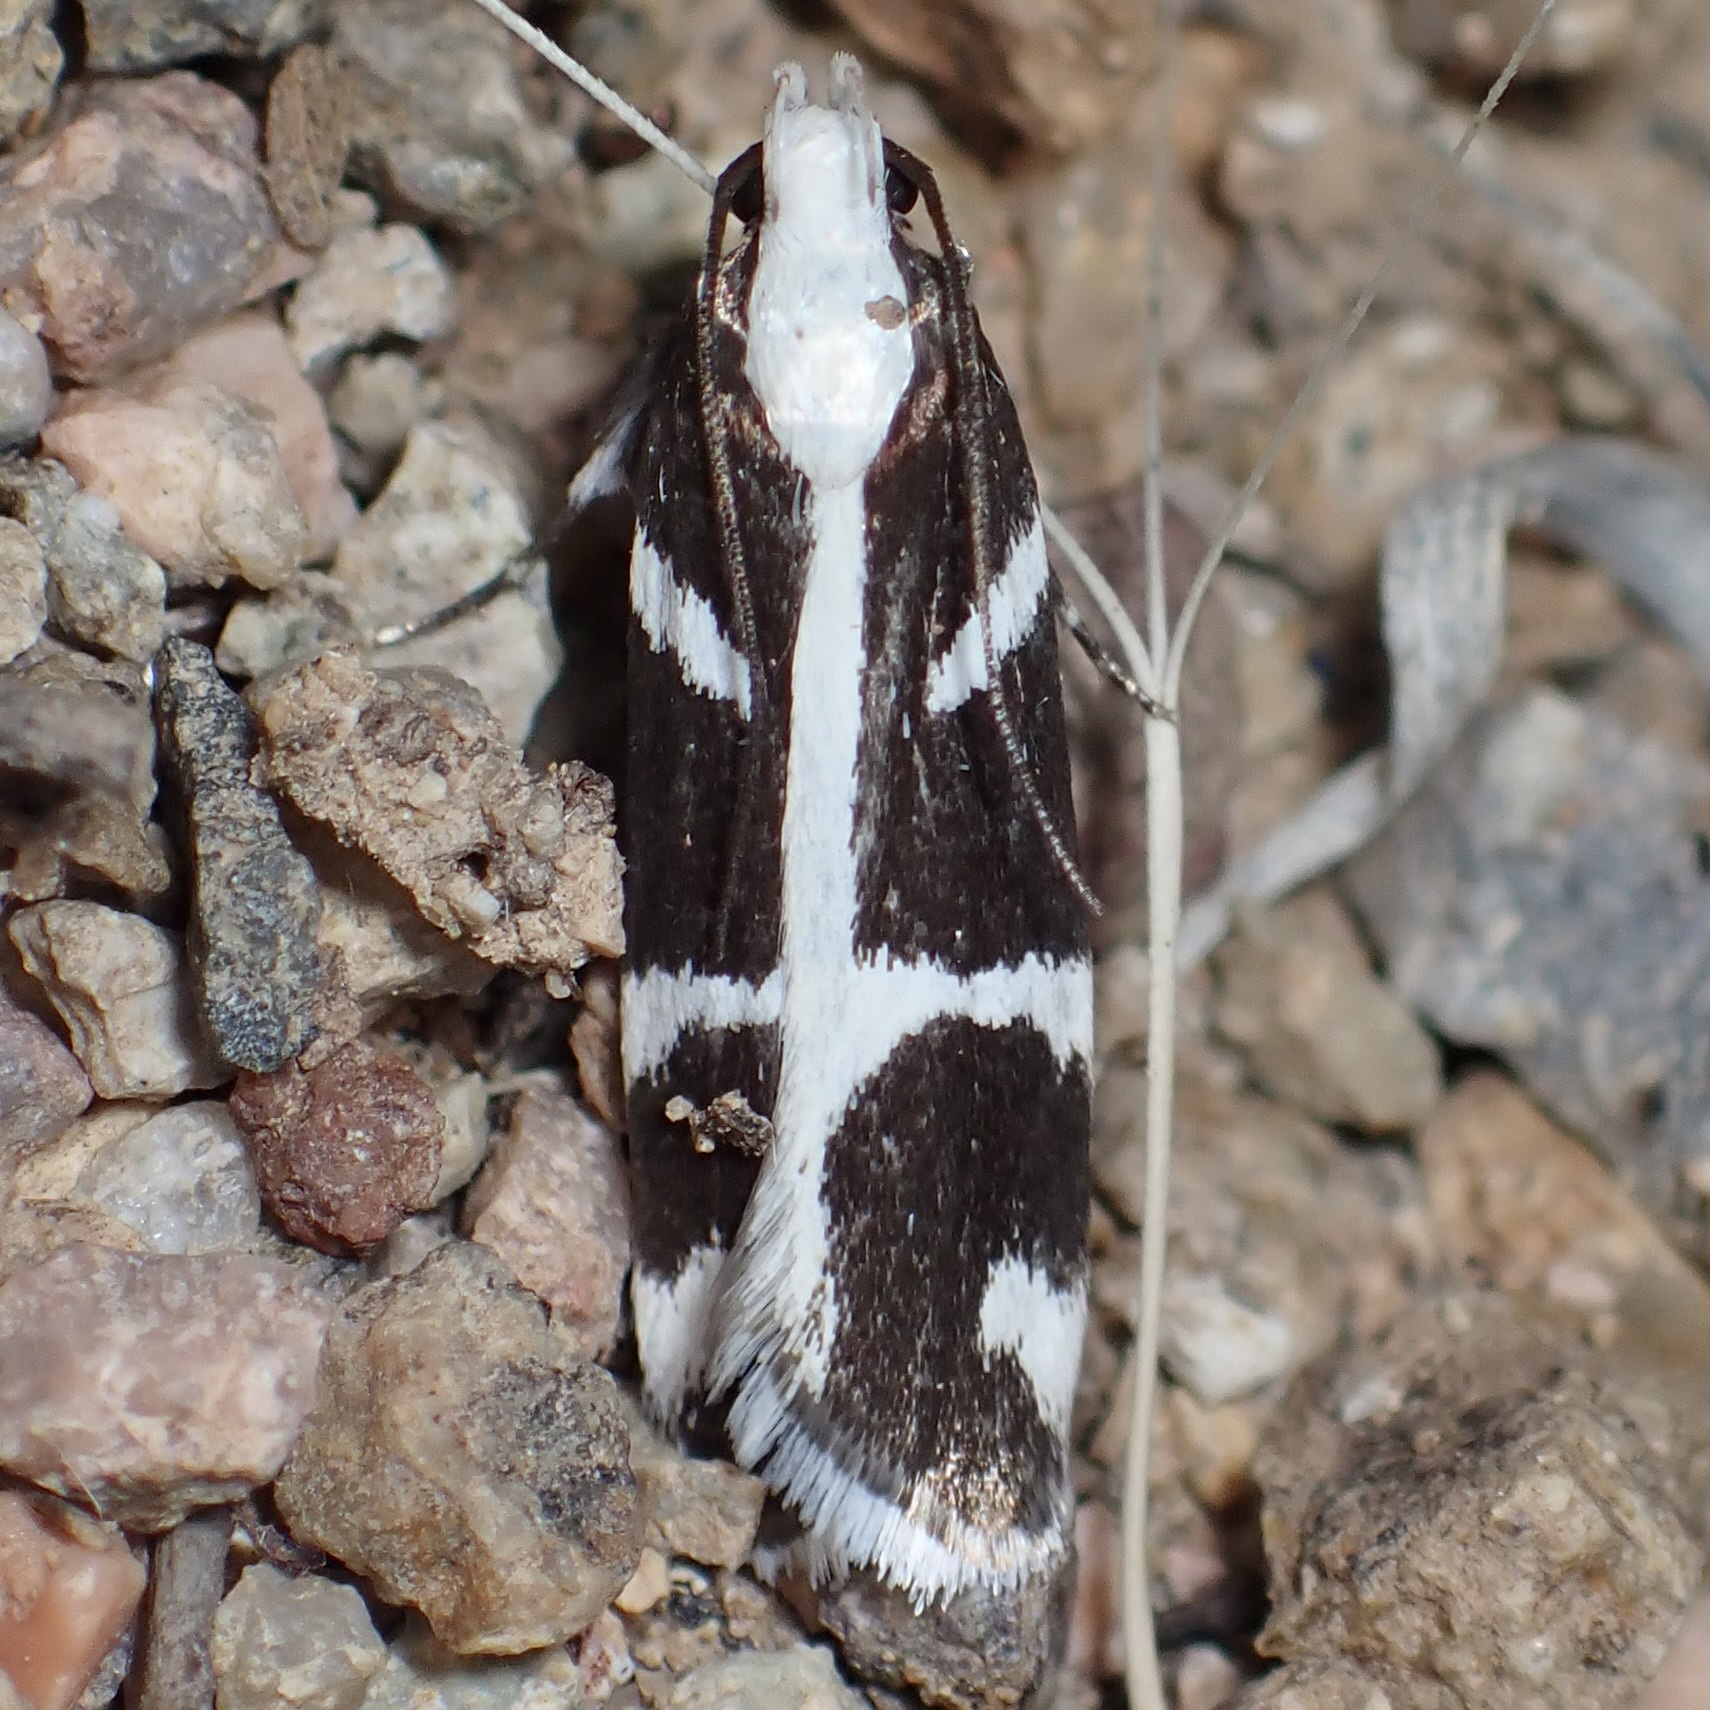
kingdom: Animalia
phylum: Arthropoda
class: Insecta
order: Lepidoptera
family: Gelechiidae
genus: Epilechia
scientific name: Epilechia catalinella
